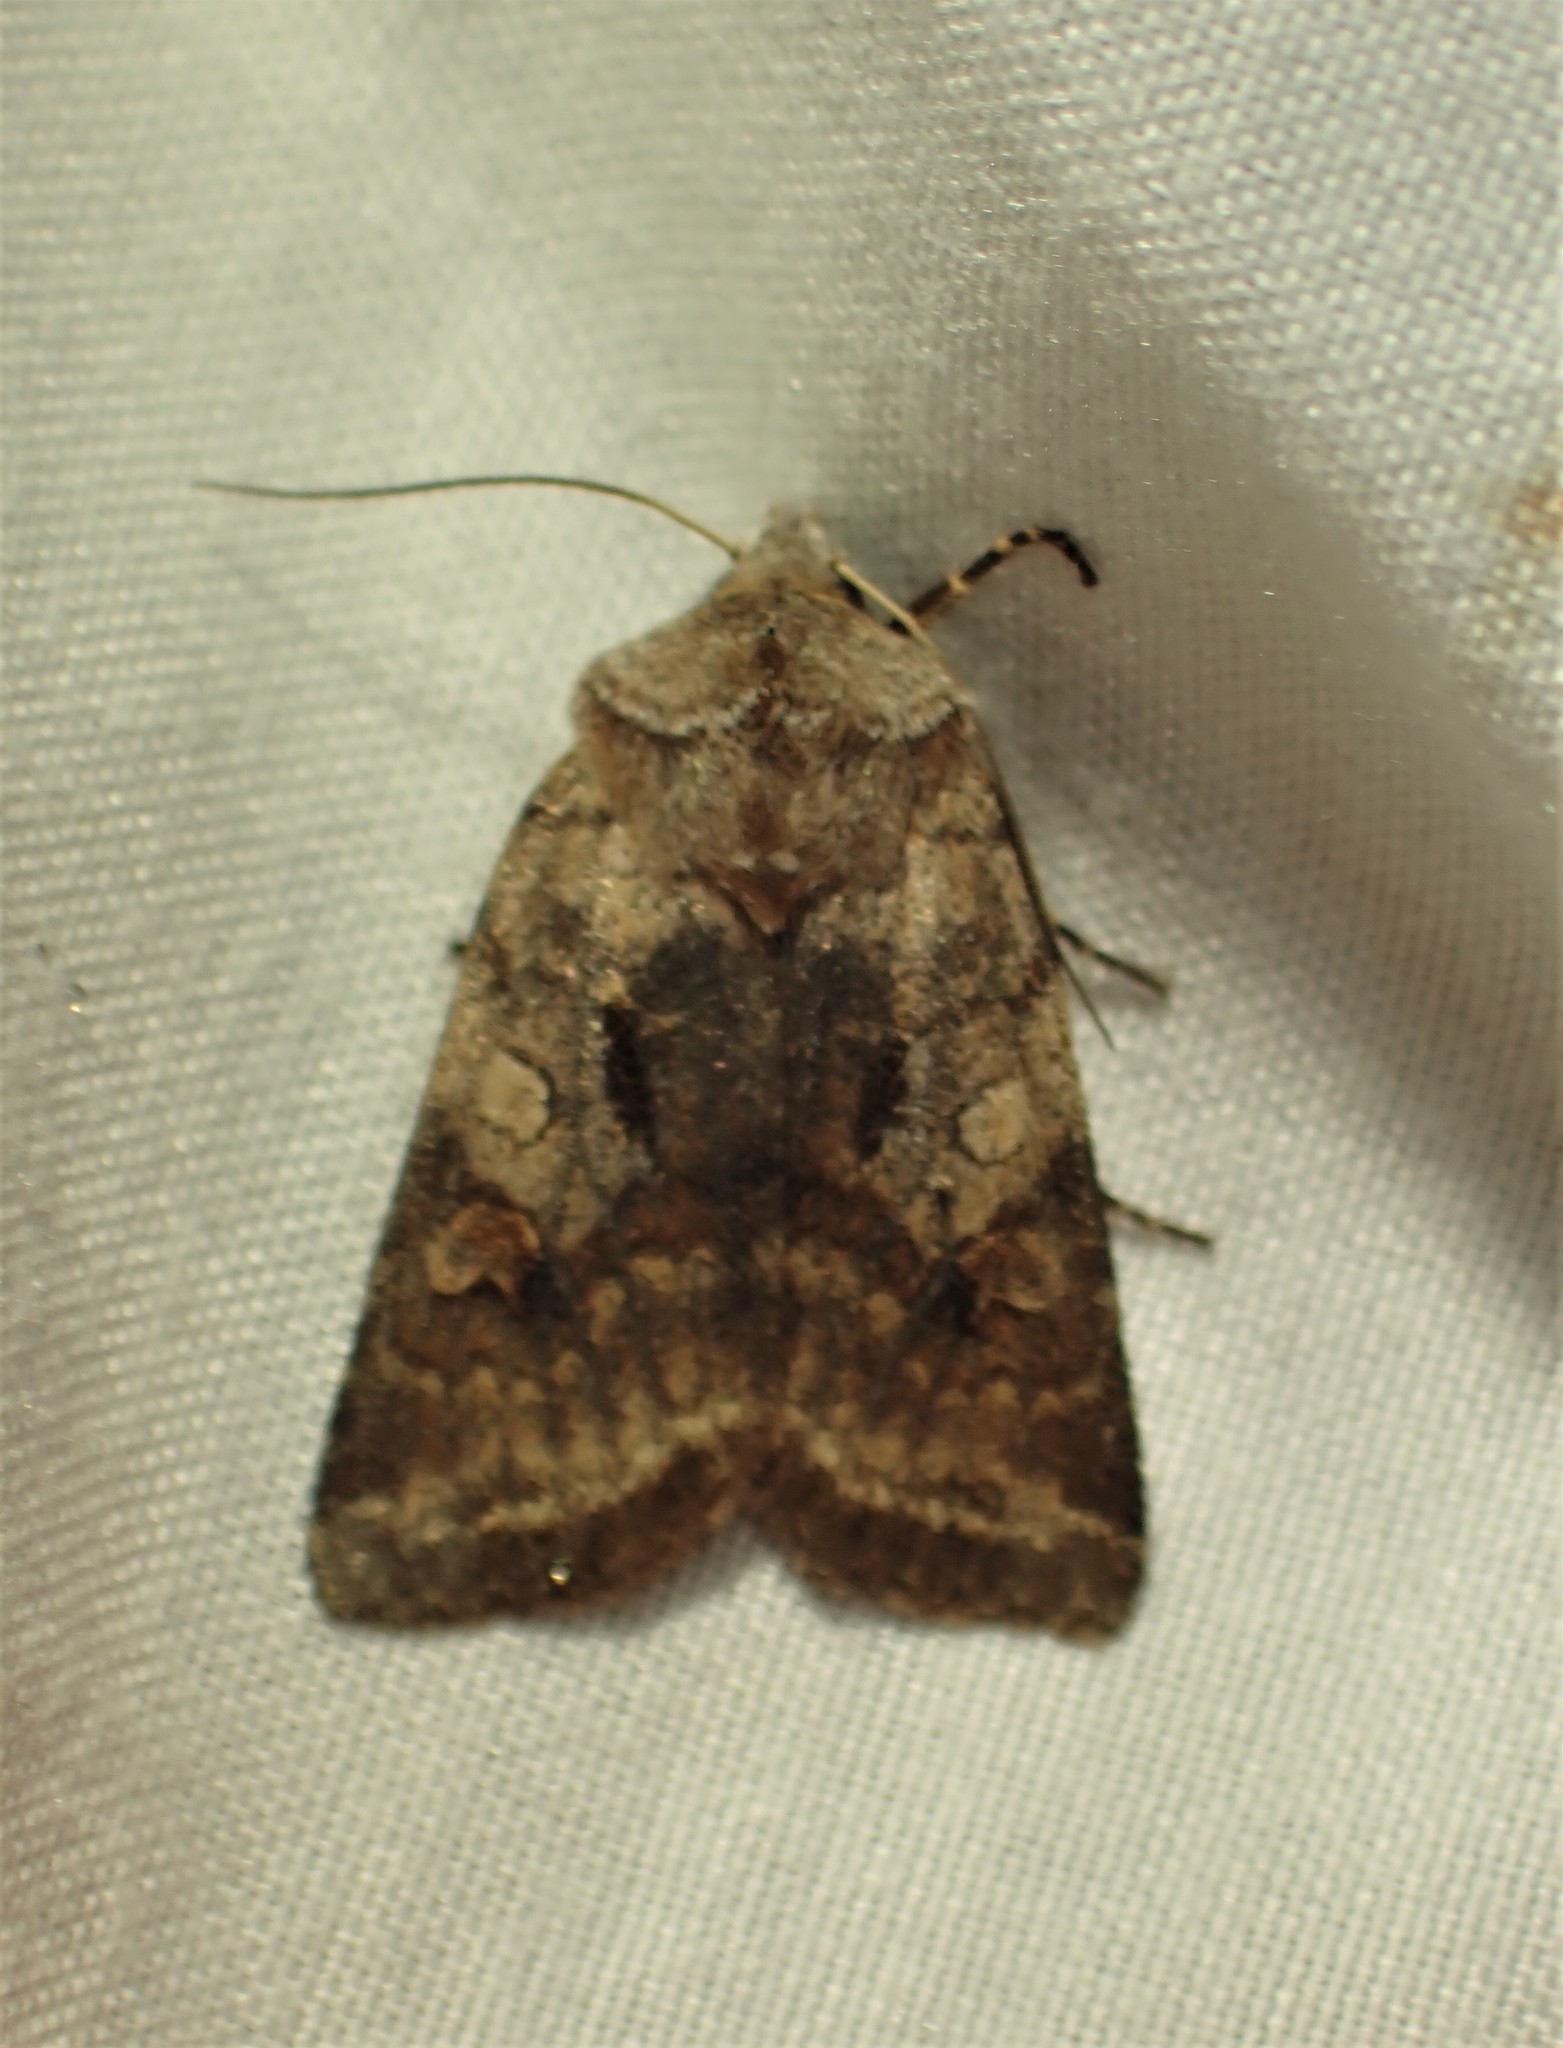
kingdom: Animalia
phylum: Arthropoda
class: Insecta
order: Lepidoptera
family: Noctuidae
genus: Cerastis
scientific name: Cerastis salicarum
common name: Willow dart
